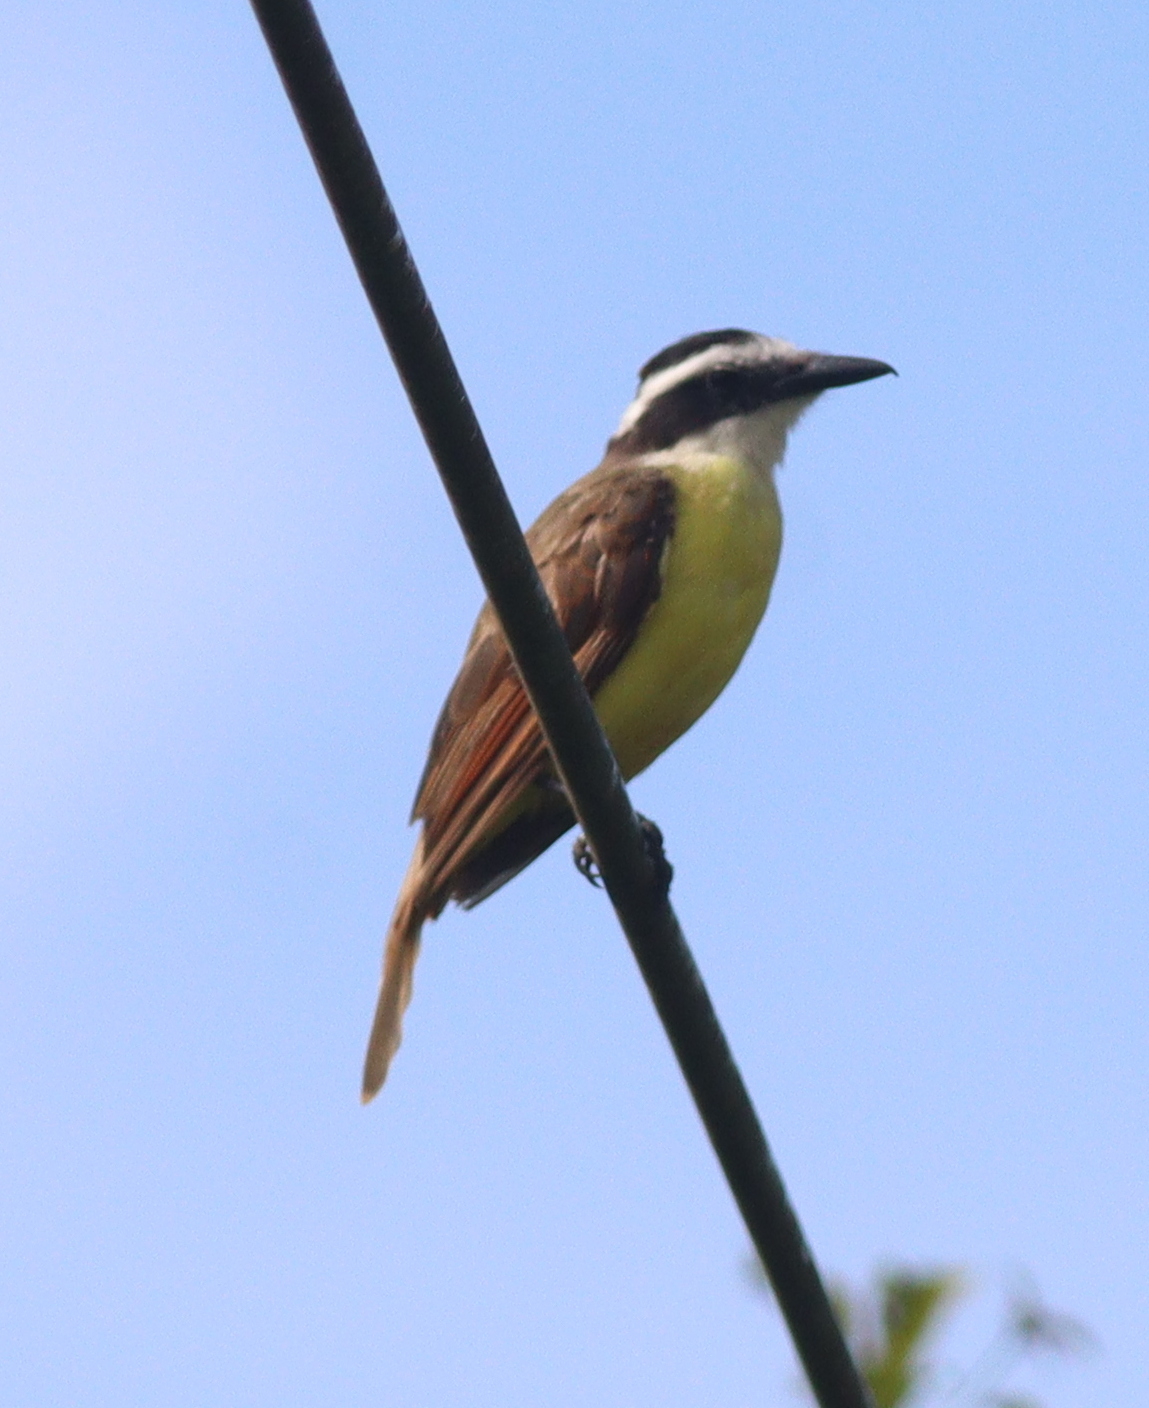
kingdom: Animalia
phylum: Chordata
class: Aves
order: Passeriformes
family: Tyrannidae
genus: Pitangus
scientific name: Pitangus sulphuratus
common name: Great kiskadee
